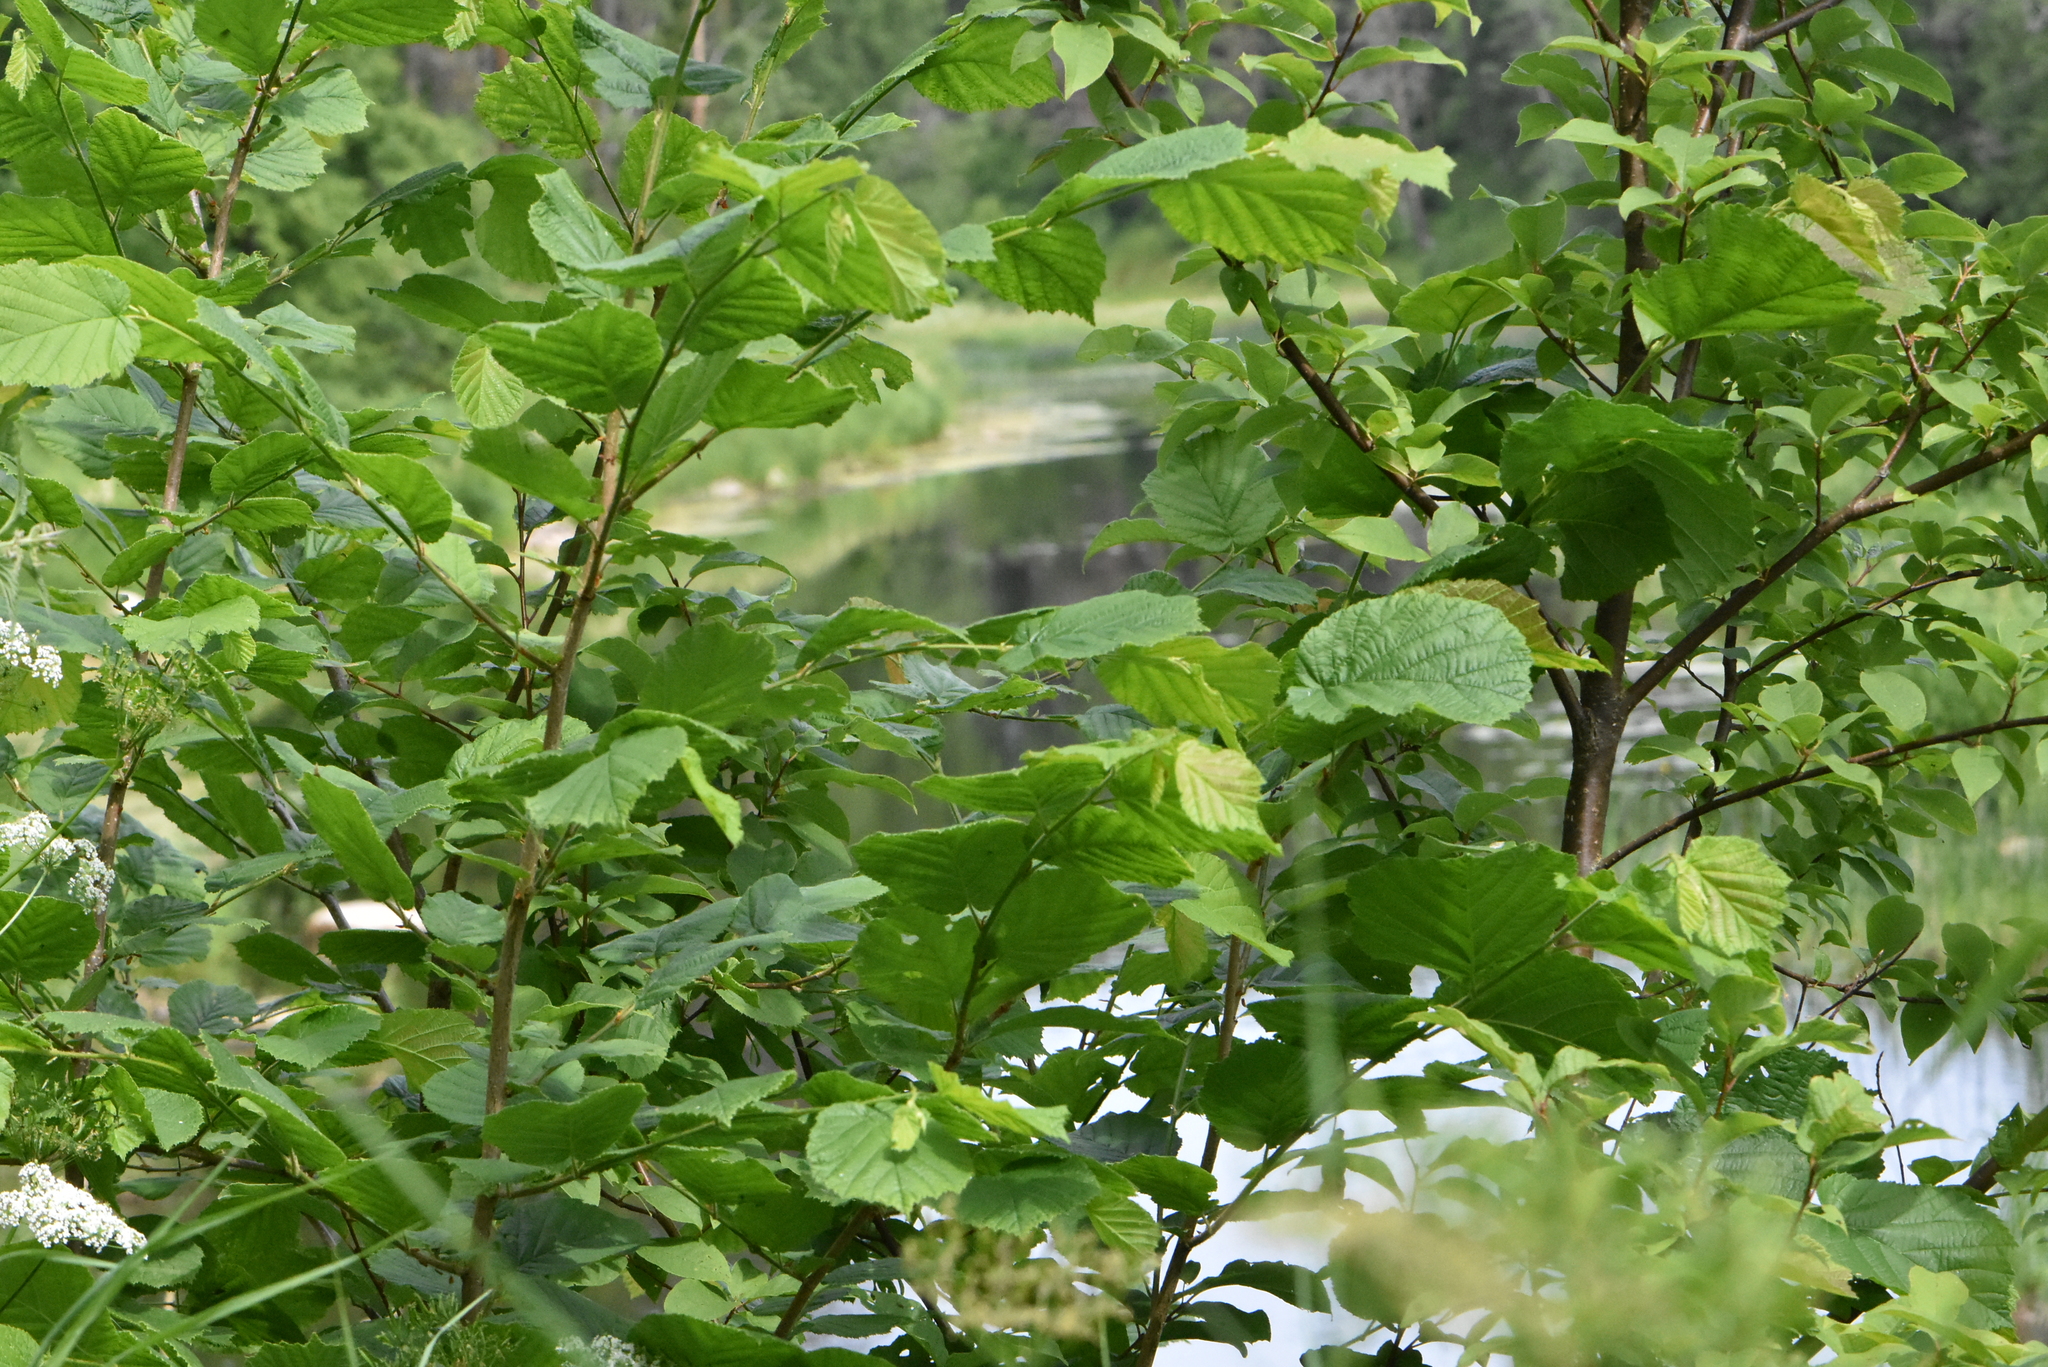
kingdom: Plantae
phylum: Tracheophyta
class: Magnoliopsida
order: Fagales
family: Betulaceae
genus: Corylus
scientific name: Corylus avellana
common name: European hazel
